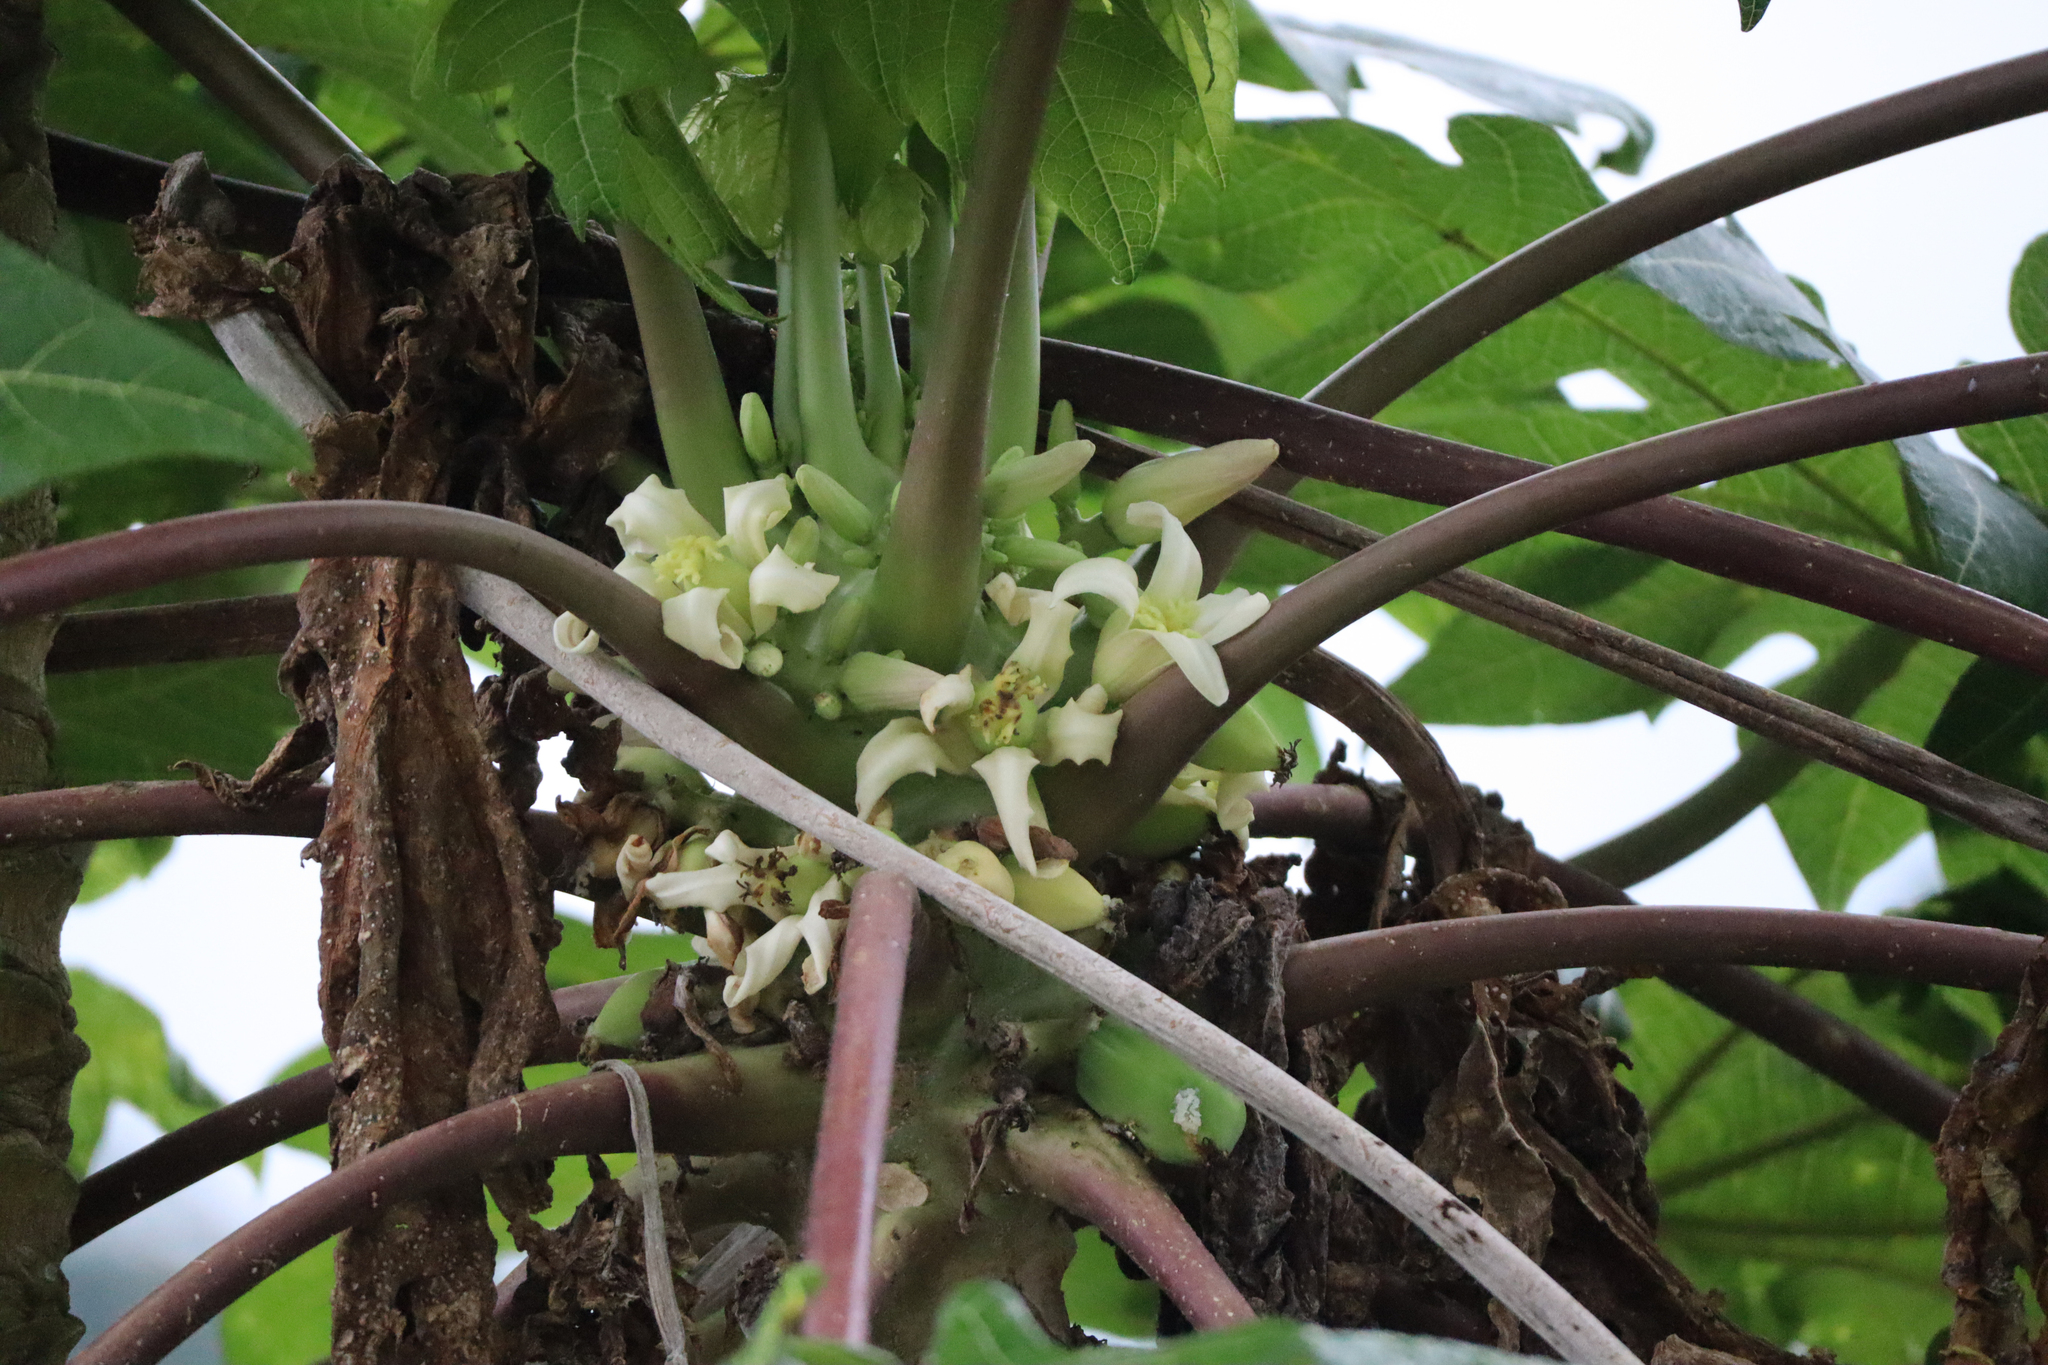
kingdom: Plantae
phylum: Tracheophyta
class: Magnoliopsida
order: Brassicales
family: Caricaceae
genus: Carica
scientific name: Carica papaya
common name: Papaya
